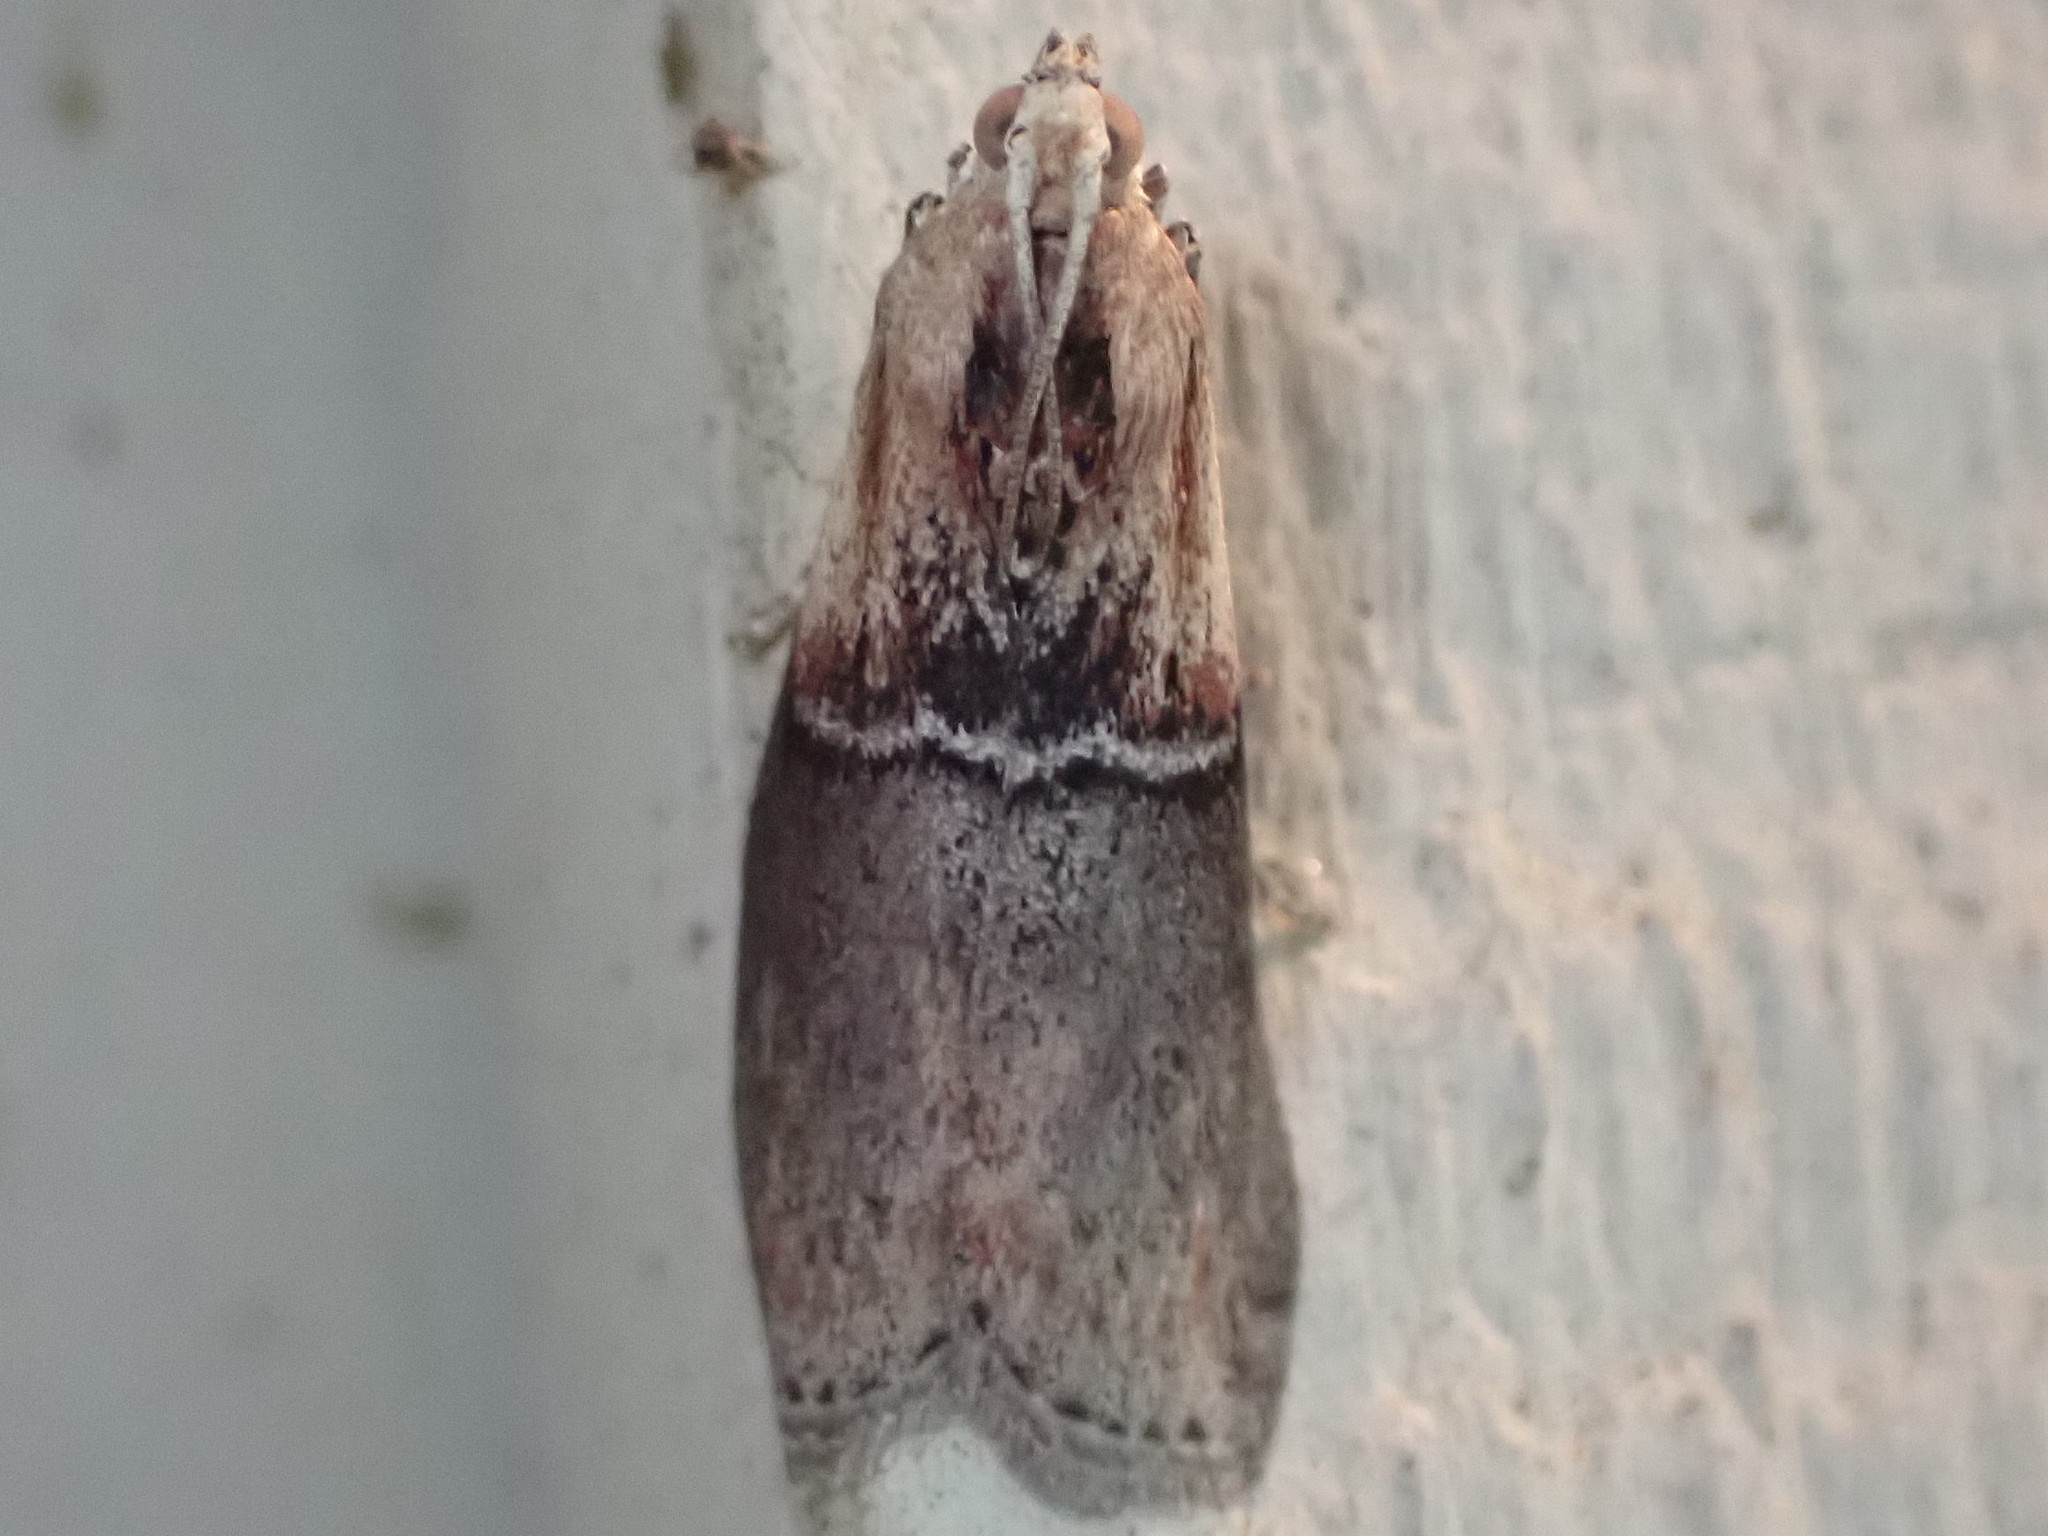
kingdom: Animalia
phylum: Arthropoda
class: Insecta
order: Lepidoptera
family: Pyralidae
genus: Sciota
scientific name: Sciota basilaris
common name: Yellow-shouldered leafroller
